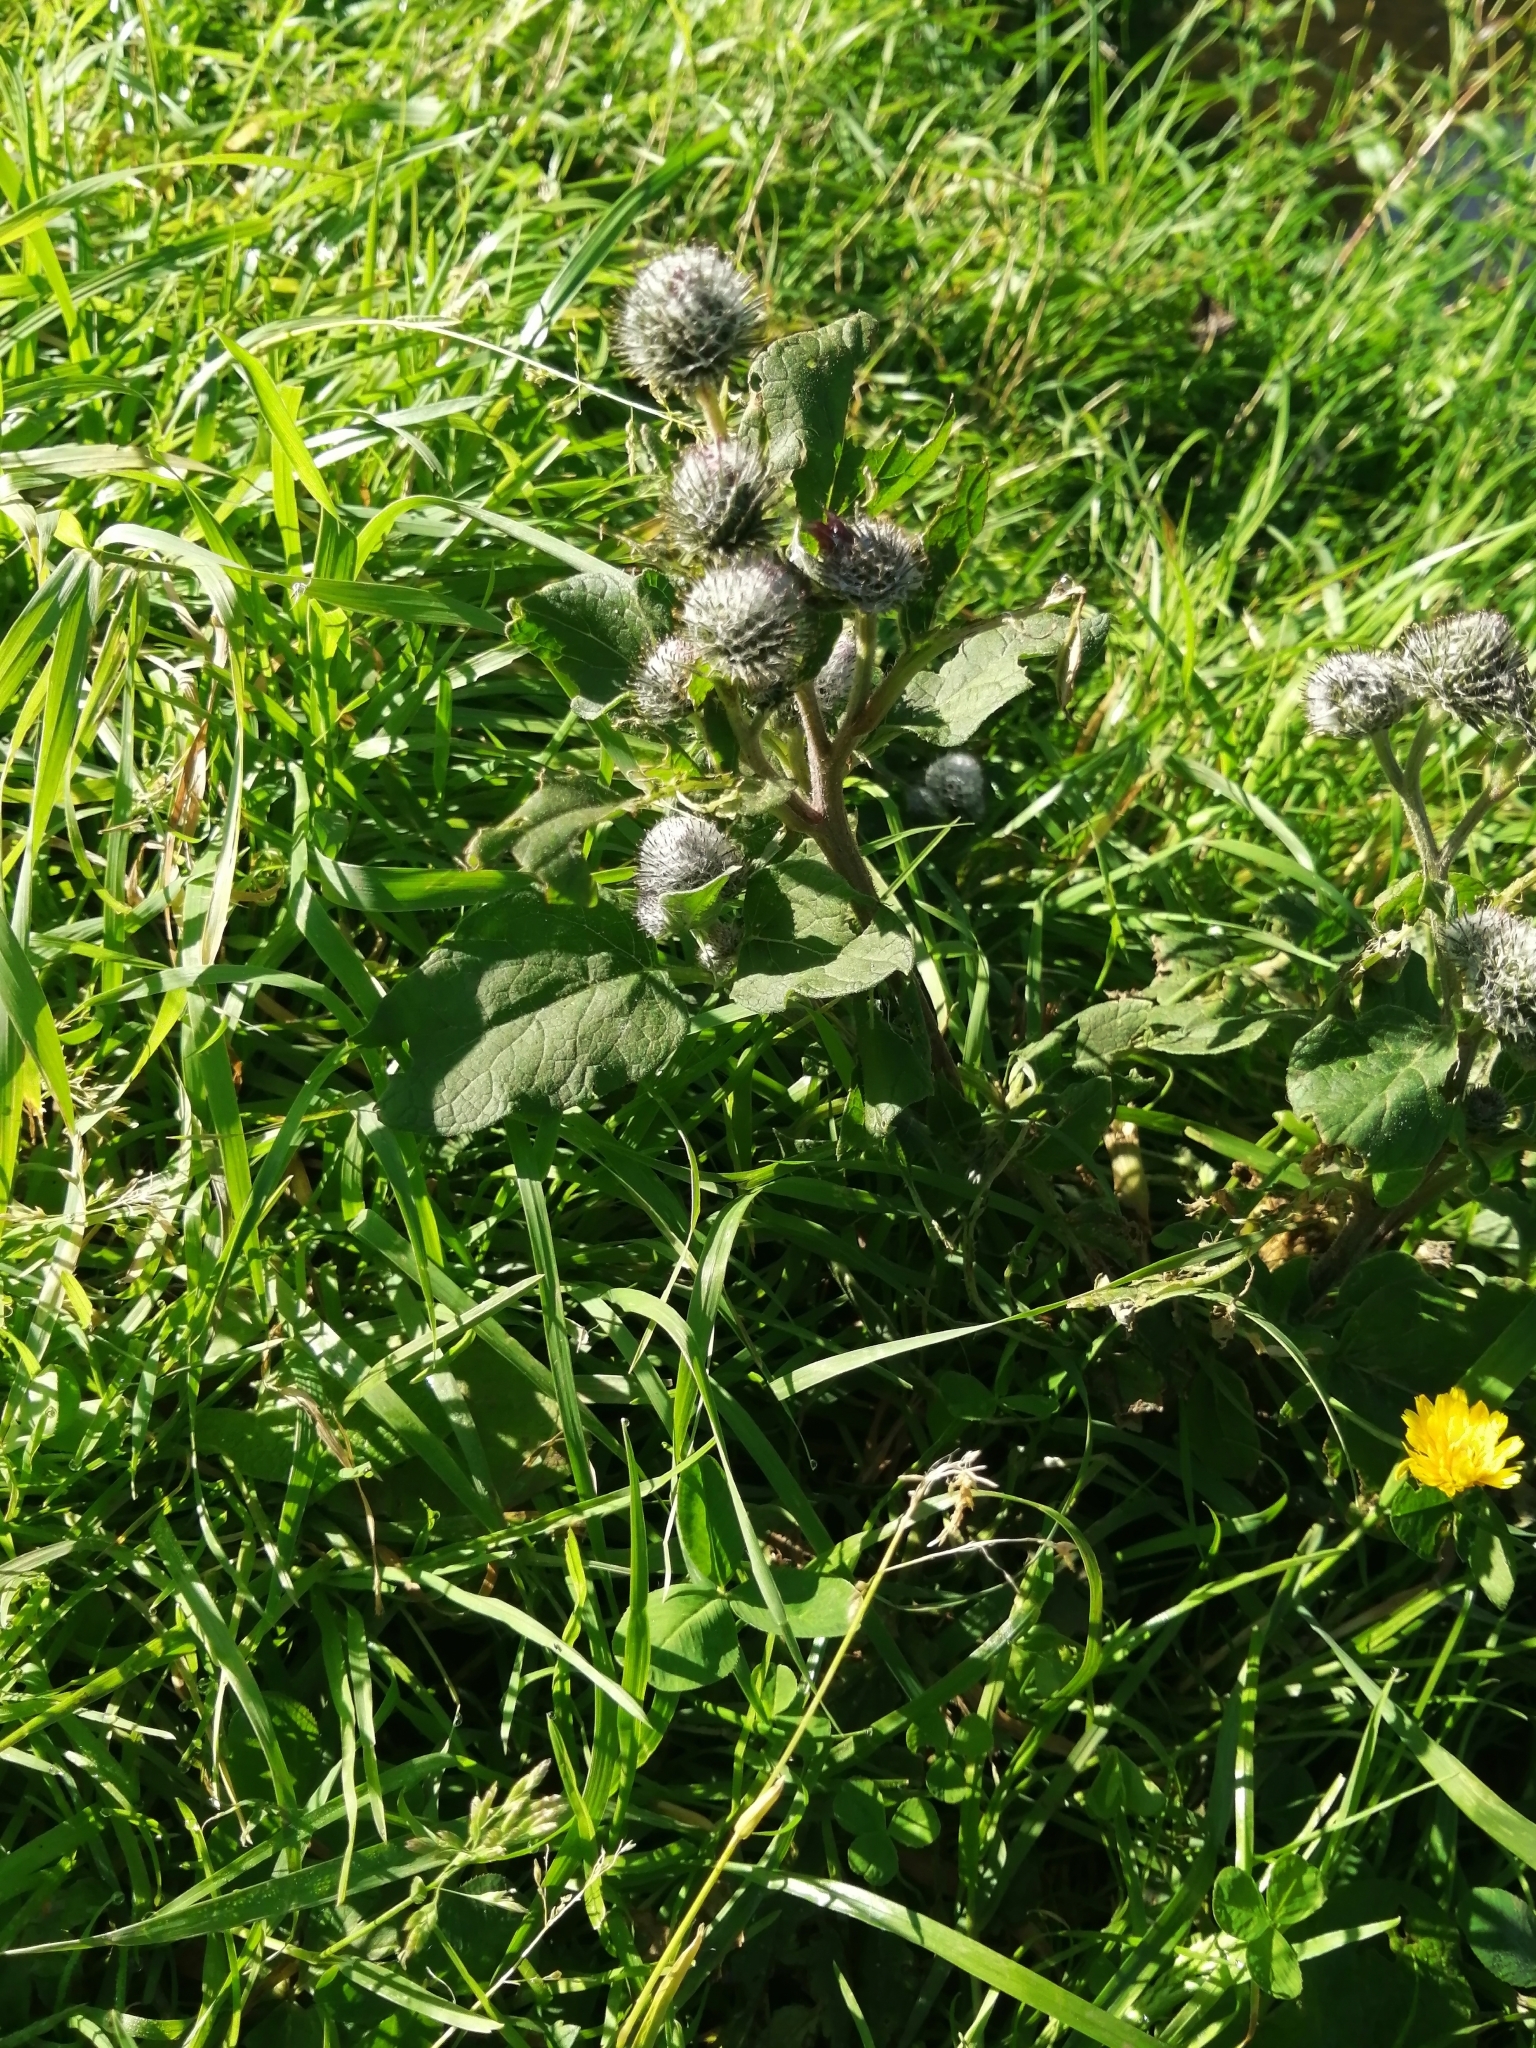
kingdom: Plantae
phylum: Tracheophyta
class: Magnoliopsida
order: Asterales
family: Asteraceae
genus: Arctium
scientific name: Arctium tomentosum
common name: Woolly burdock
